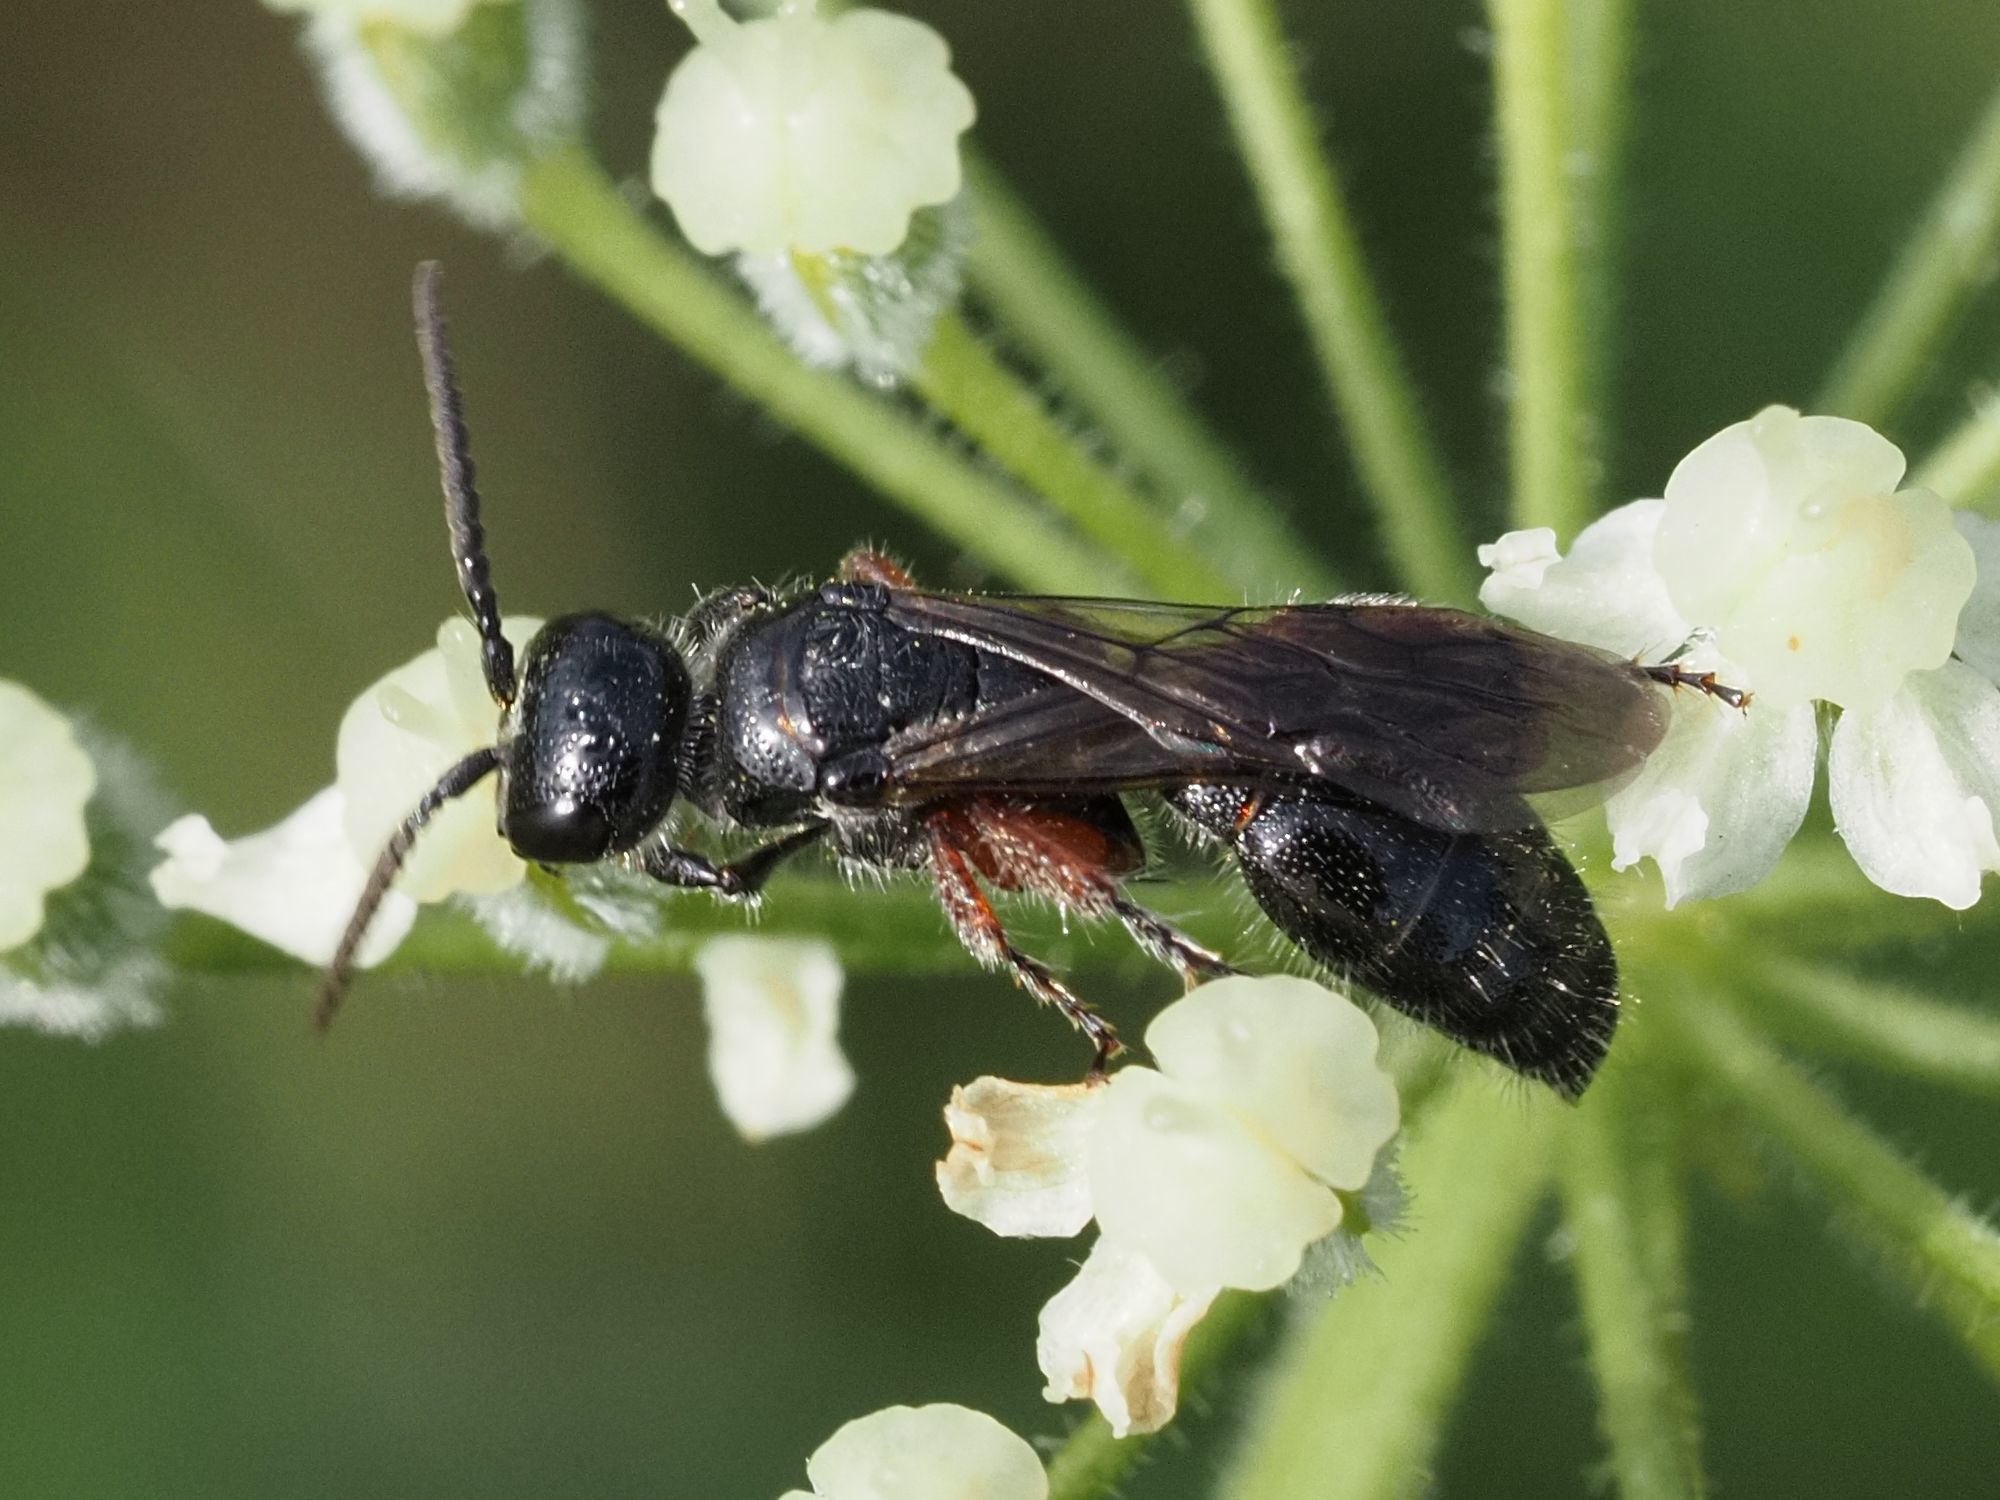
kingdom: Animalia
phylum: Arthropoda
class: Insecta
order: Hymenoptera
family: Tiphiidae
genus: Tiphia
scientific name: Tiphia femorata
